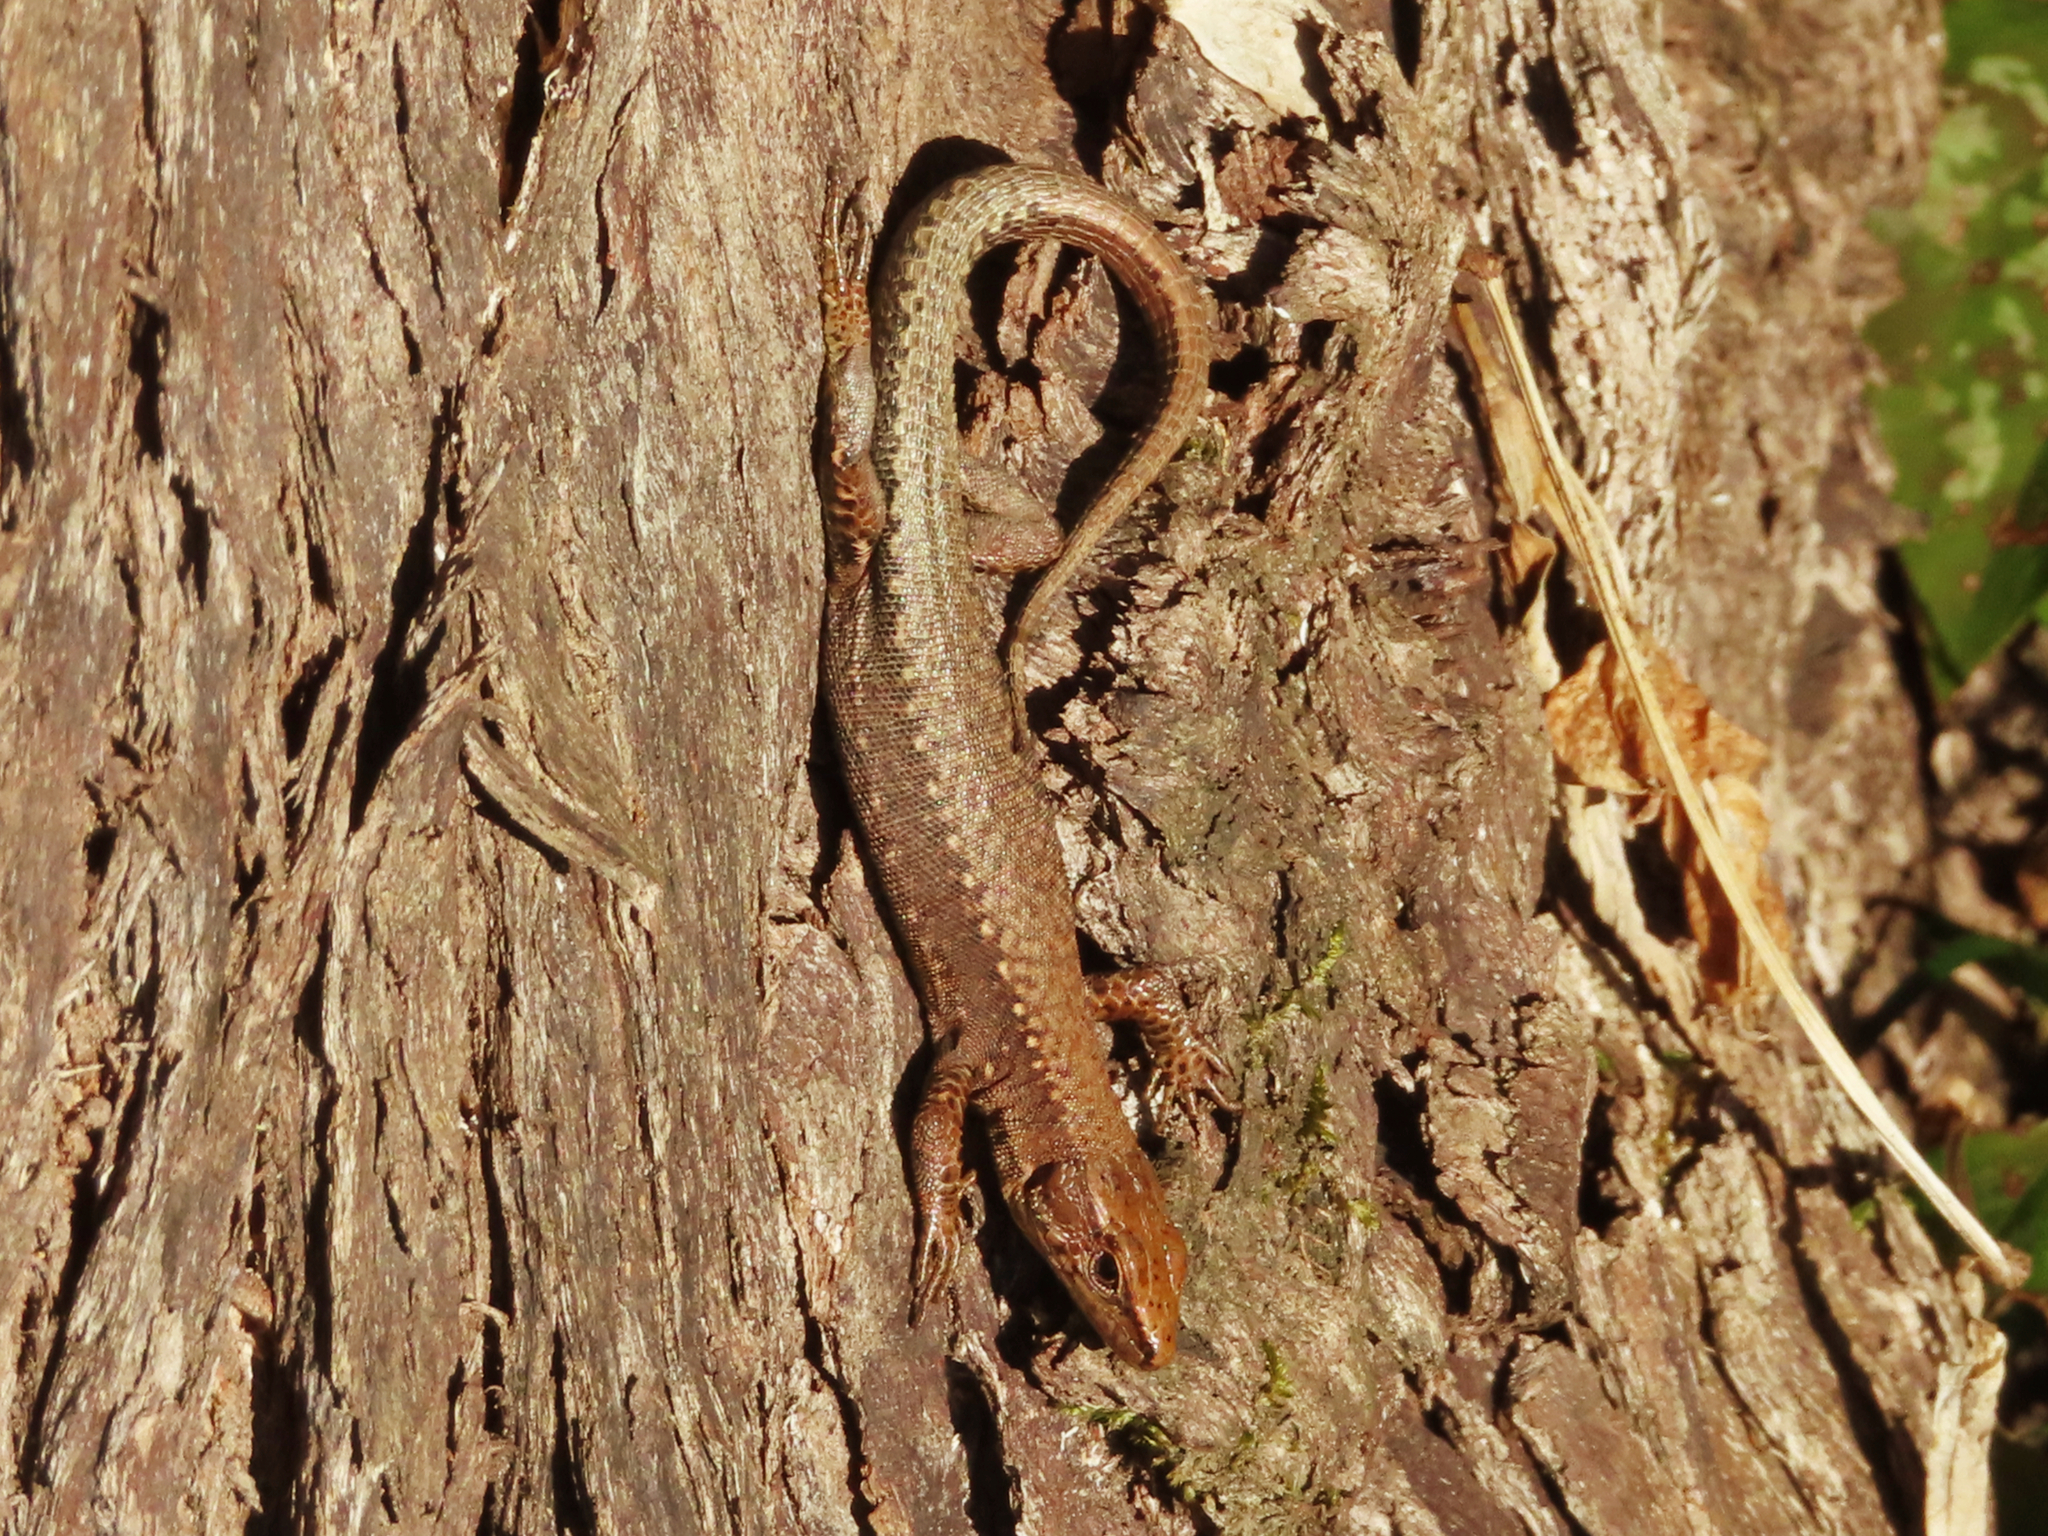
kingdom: Animalia
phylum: Chordata
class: Squamata
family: Lacertidae
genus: Darevskia
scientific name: Darevskia derjugini
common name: Derjugin's lizard
